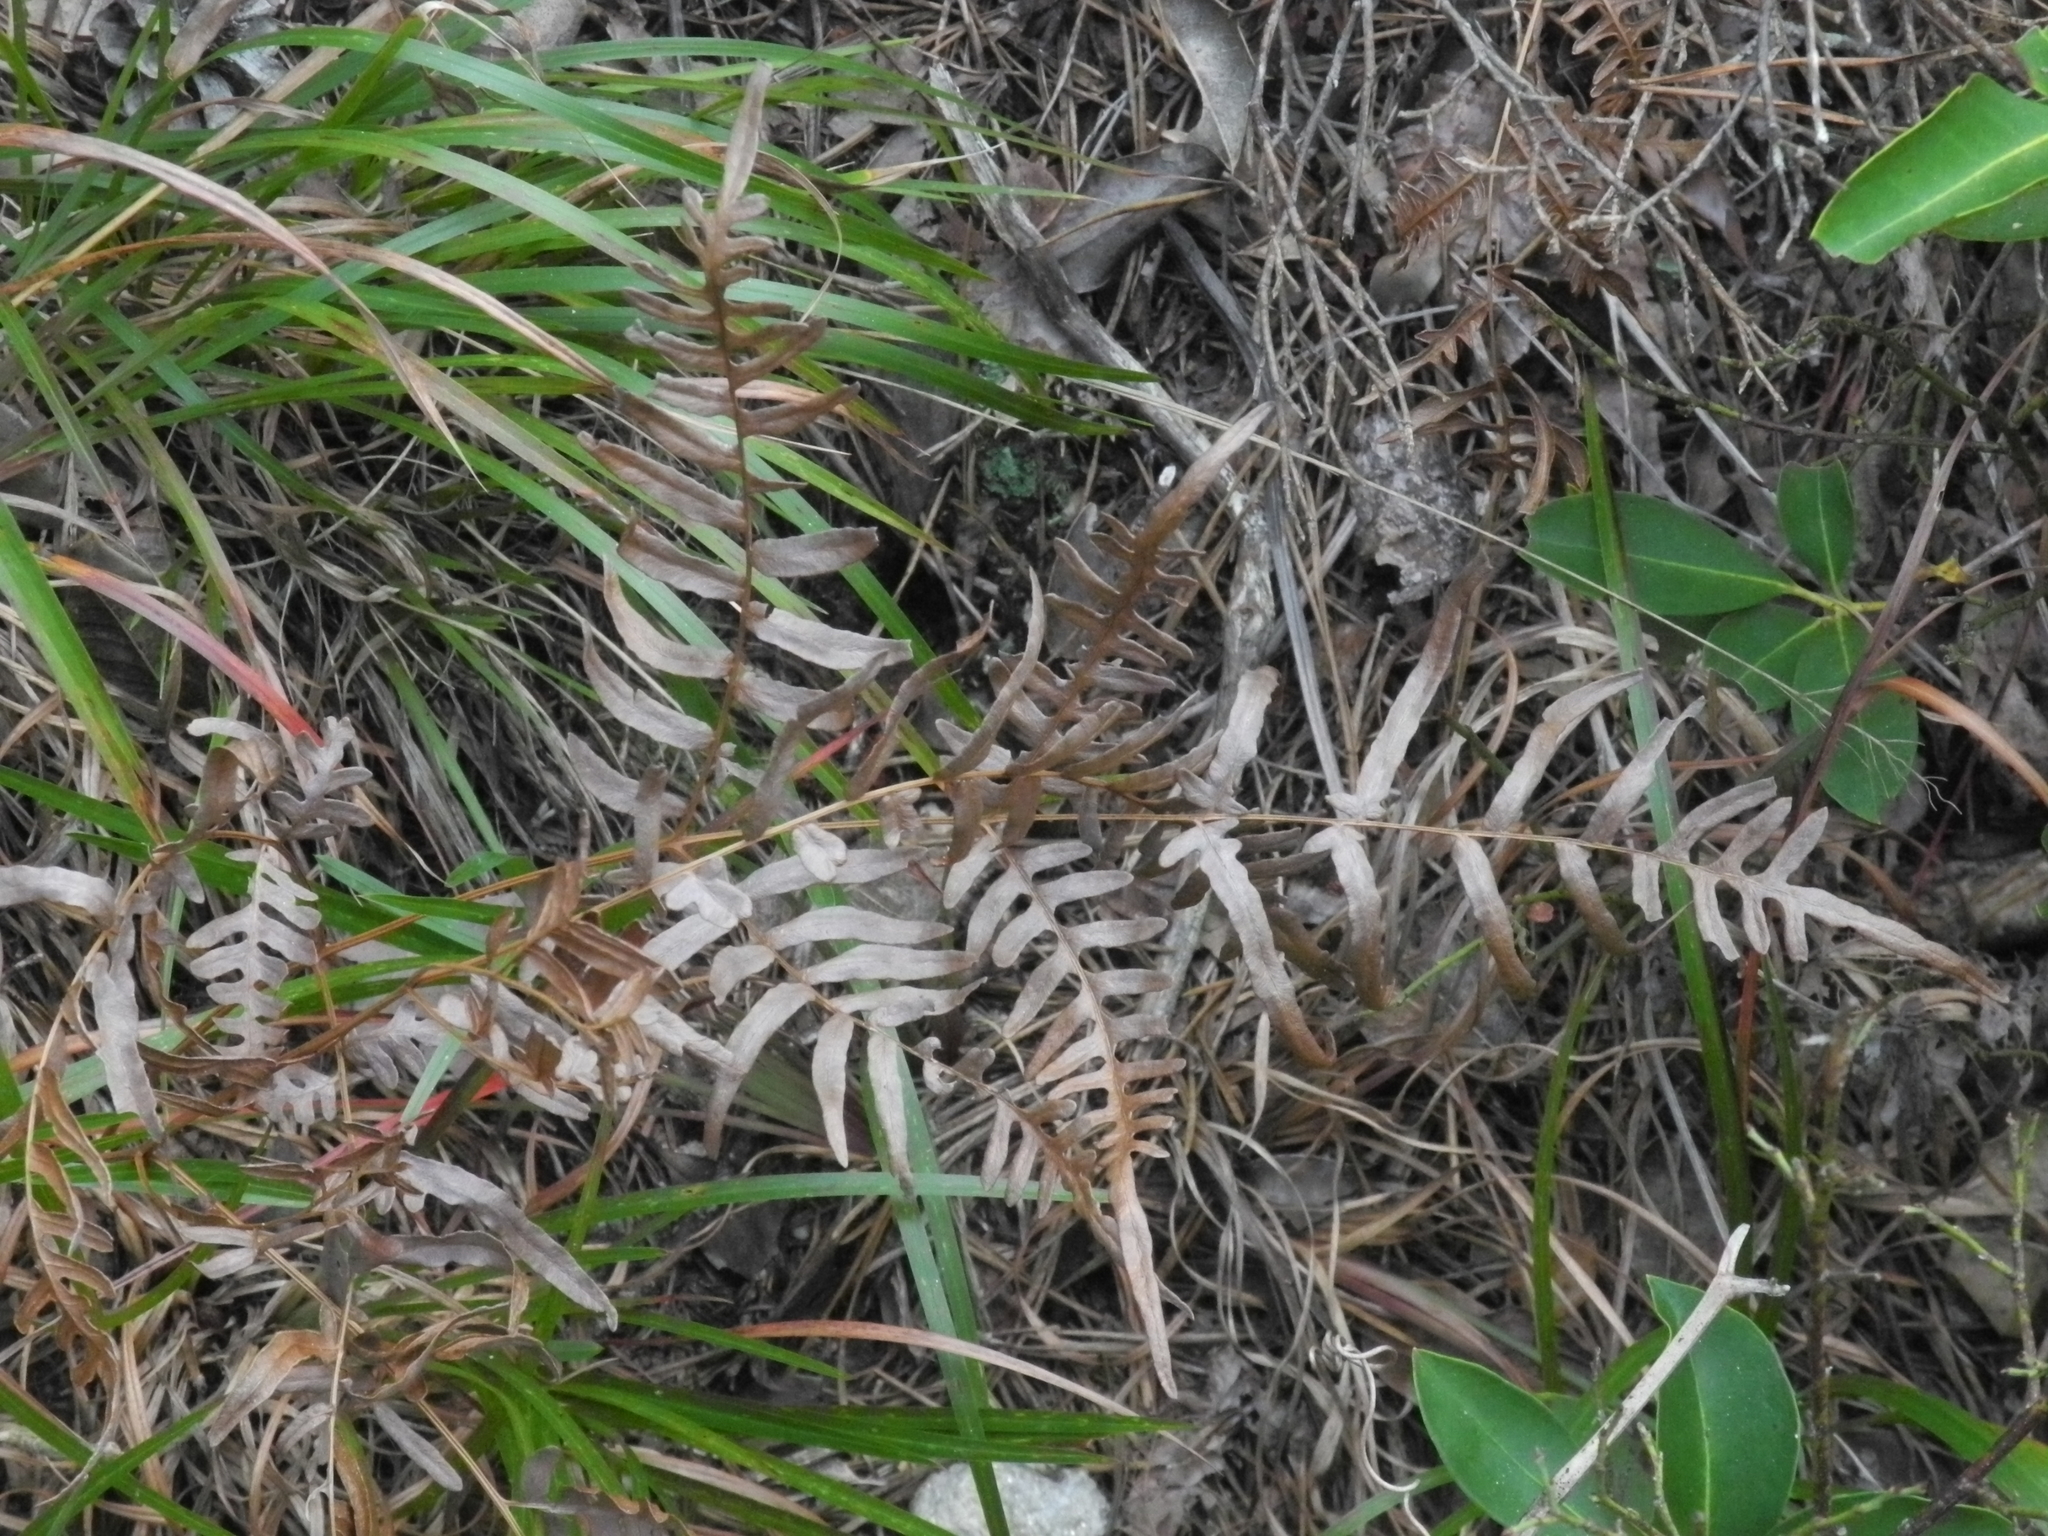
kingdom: Plantae
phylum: Tracheophyta
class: Polypodiopsida
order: Polypodiales
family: Dennstaedtiaceae
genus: Pteridium
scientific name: Pteridium
